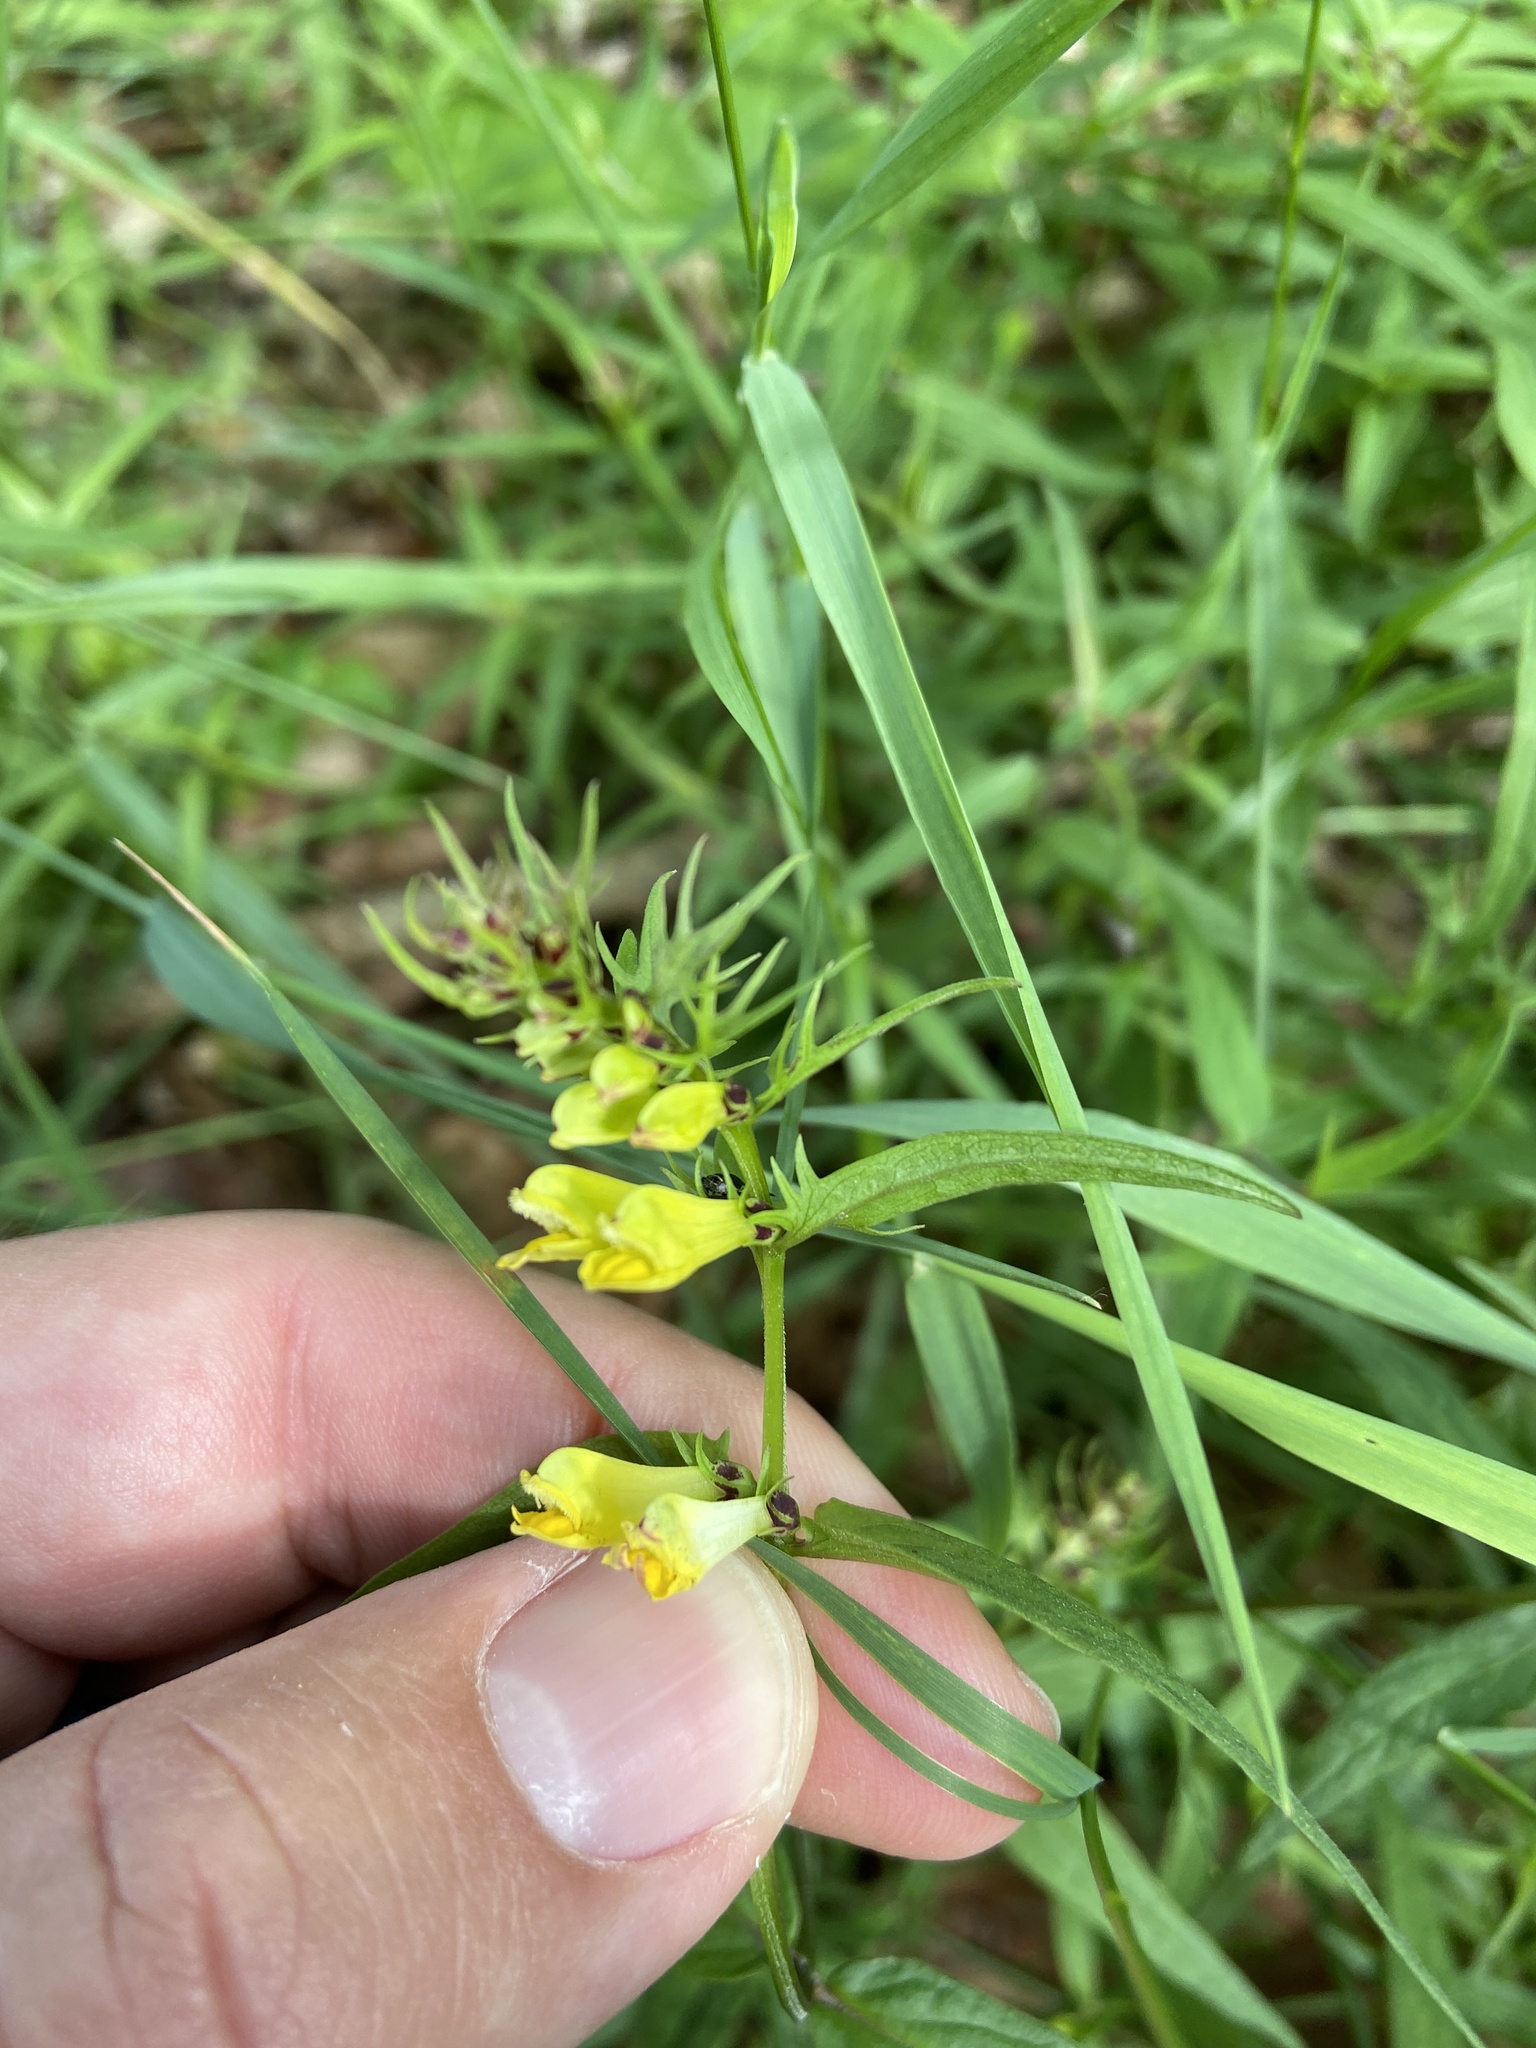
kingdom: Plantae
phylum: Tracheophyta
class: Magnoliopsida
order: Lamiales
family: Orobanchaceae
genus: Melampyrum
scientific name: Melampyrum pratense
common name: Common cow-wheat
